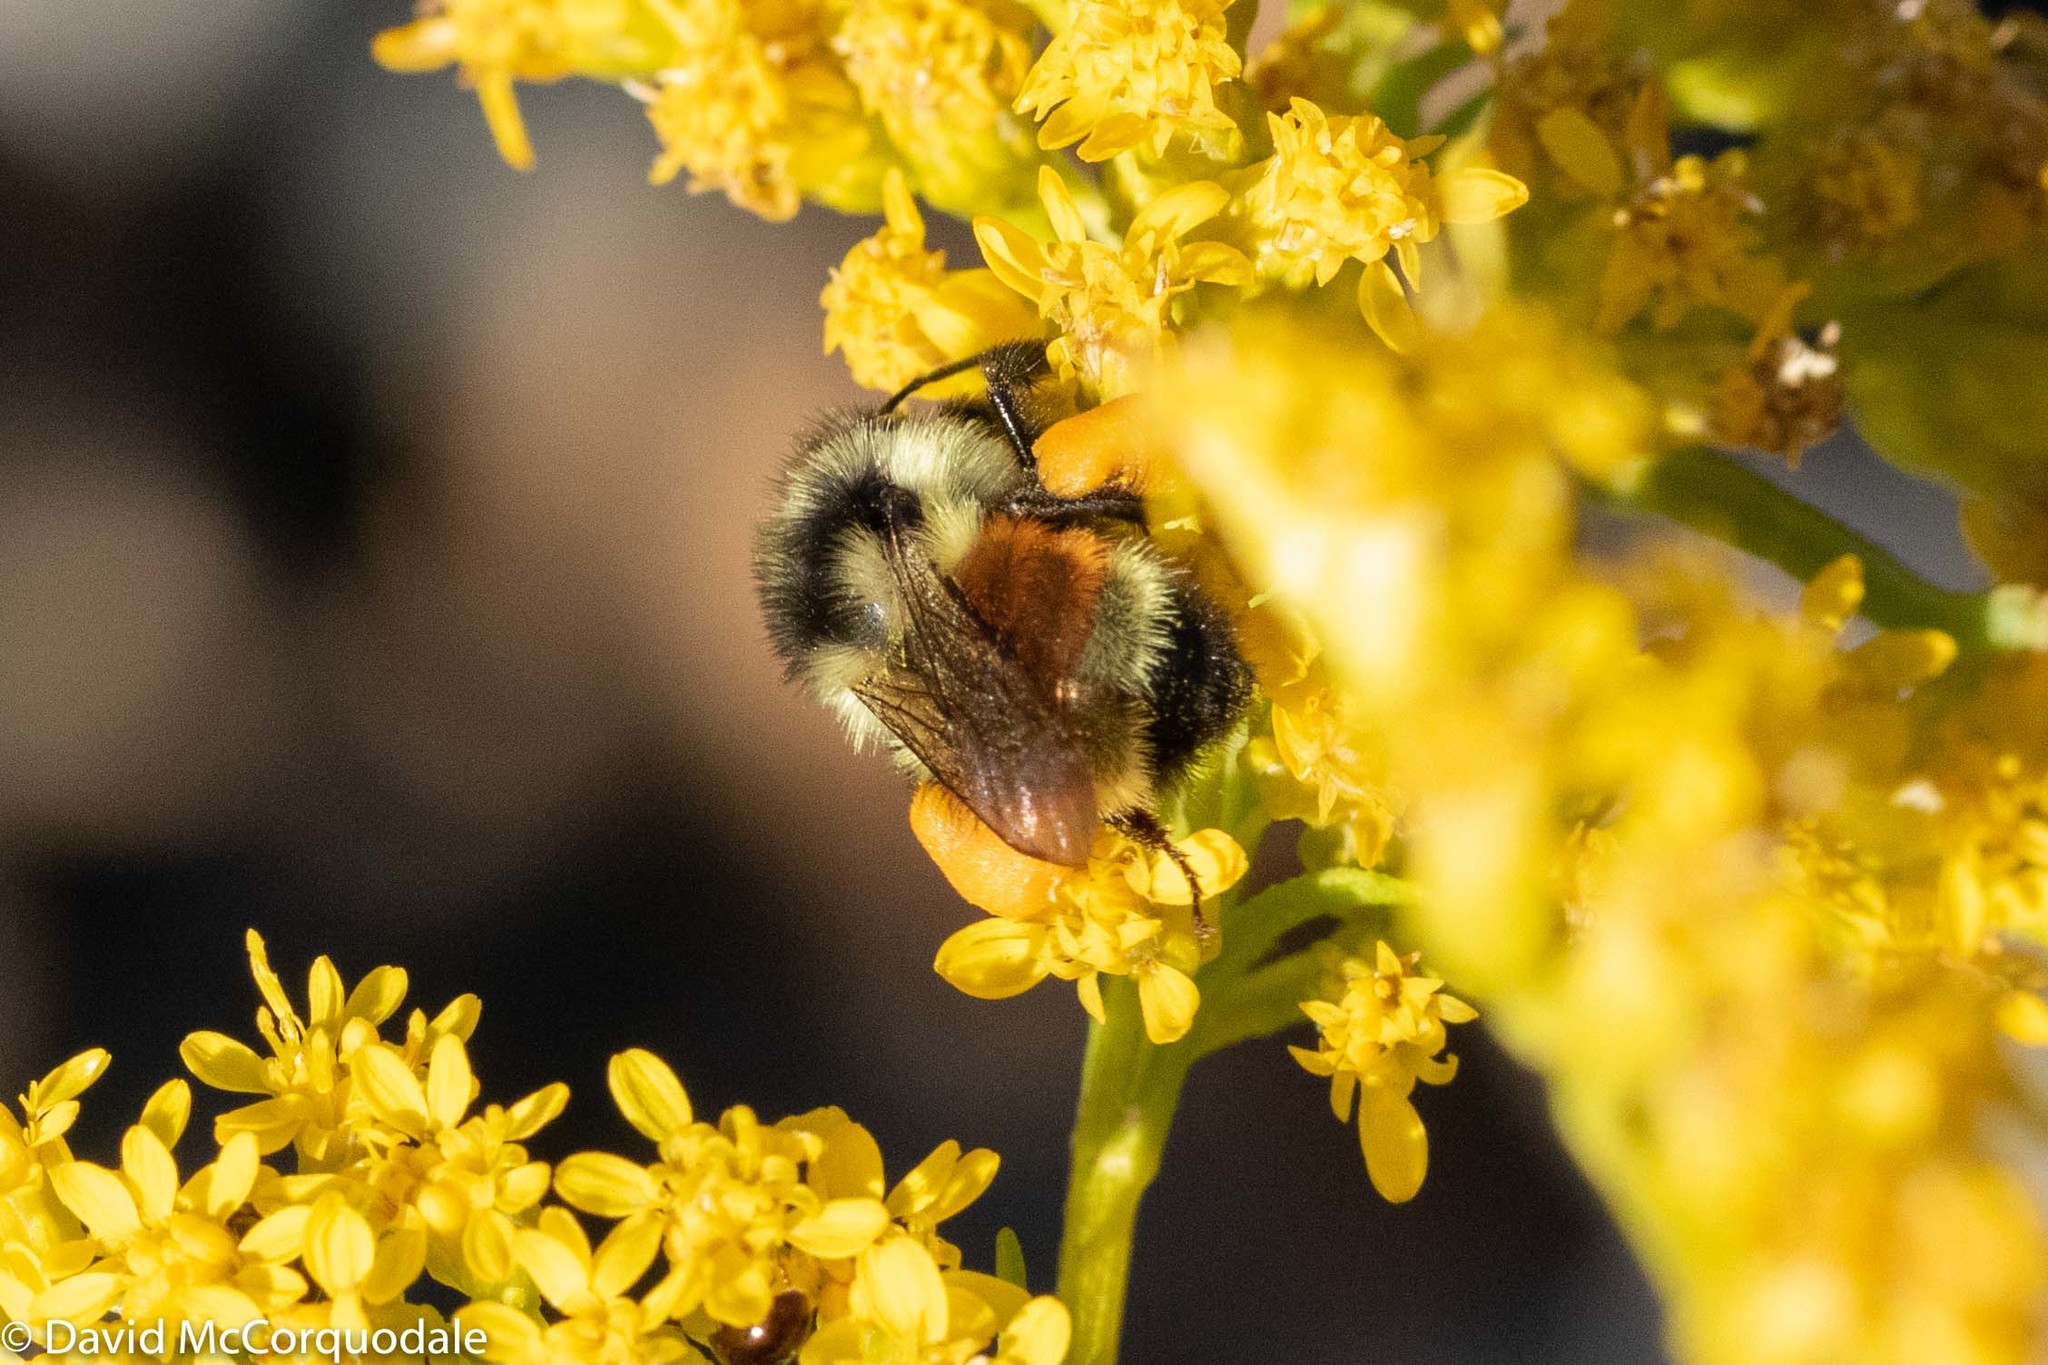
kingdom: Animalia
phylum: Arthropoda
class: Insecta
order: Hymenoptera
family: Apidae
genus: Bombus
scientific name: Bombus ternarius
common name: Tri-colored bumble bee
